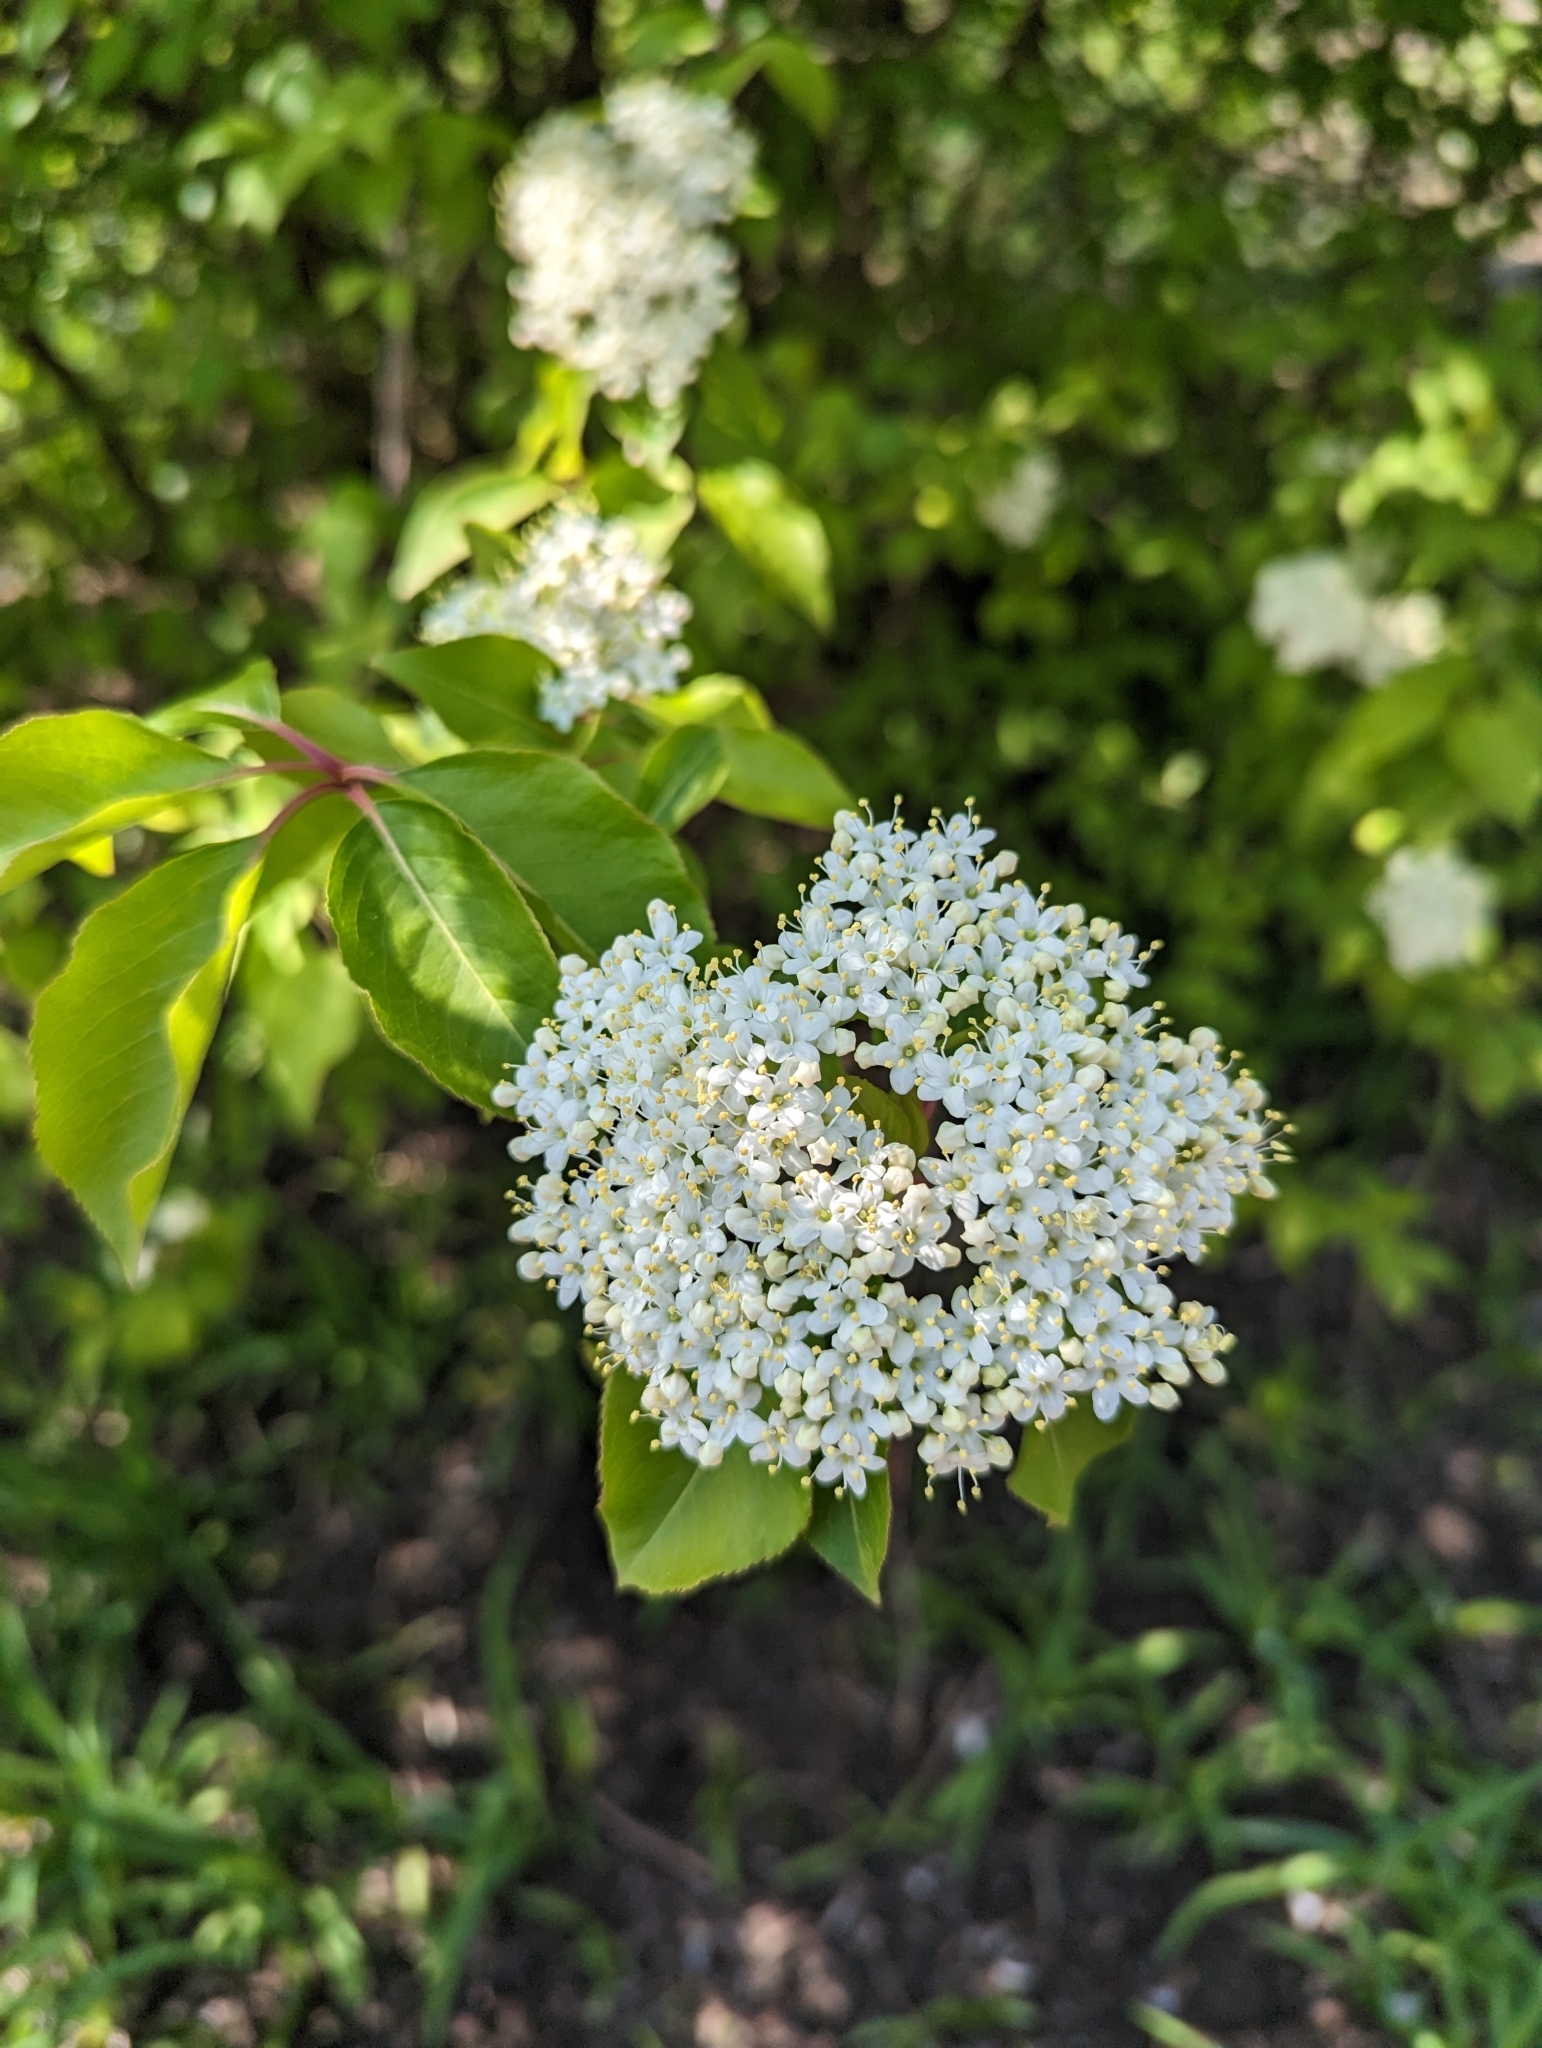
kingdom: Plantae
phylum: Tracheophyta
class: Magnoliopsida
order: Dipsacales
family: Viburnaceae
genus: Viburnum
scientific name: Viburnum prunifolium
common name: Black haw
